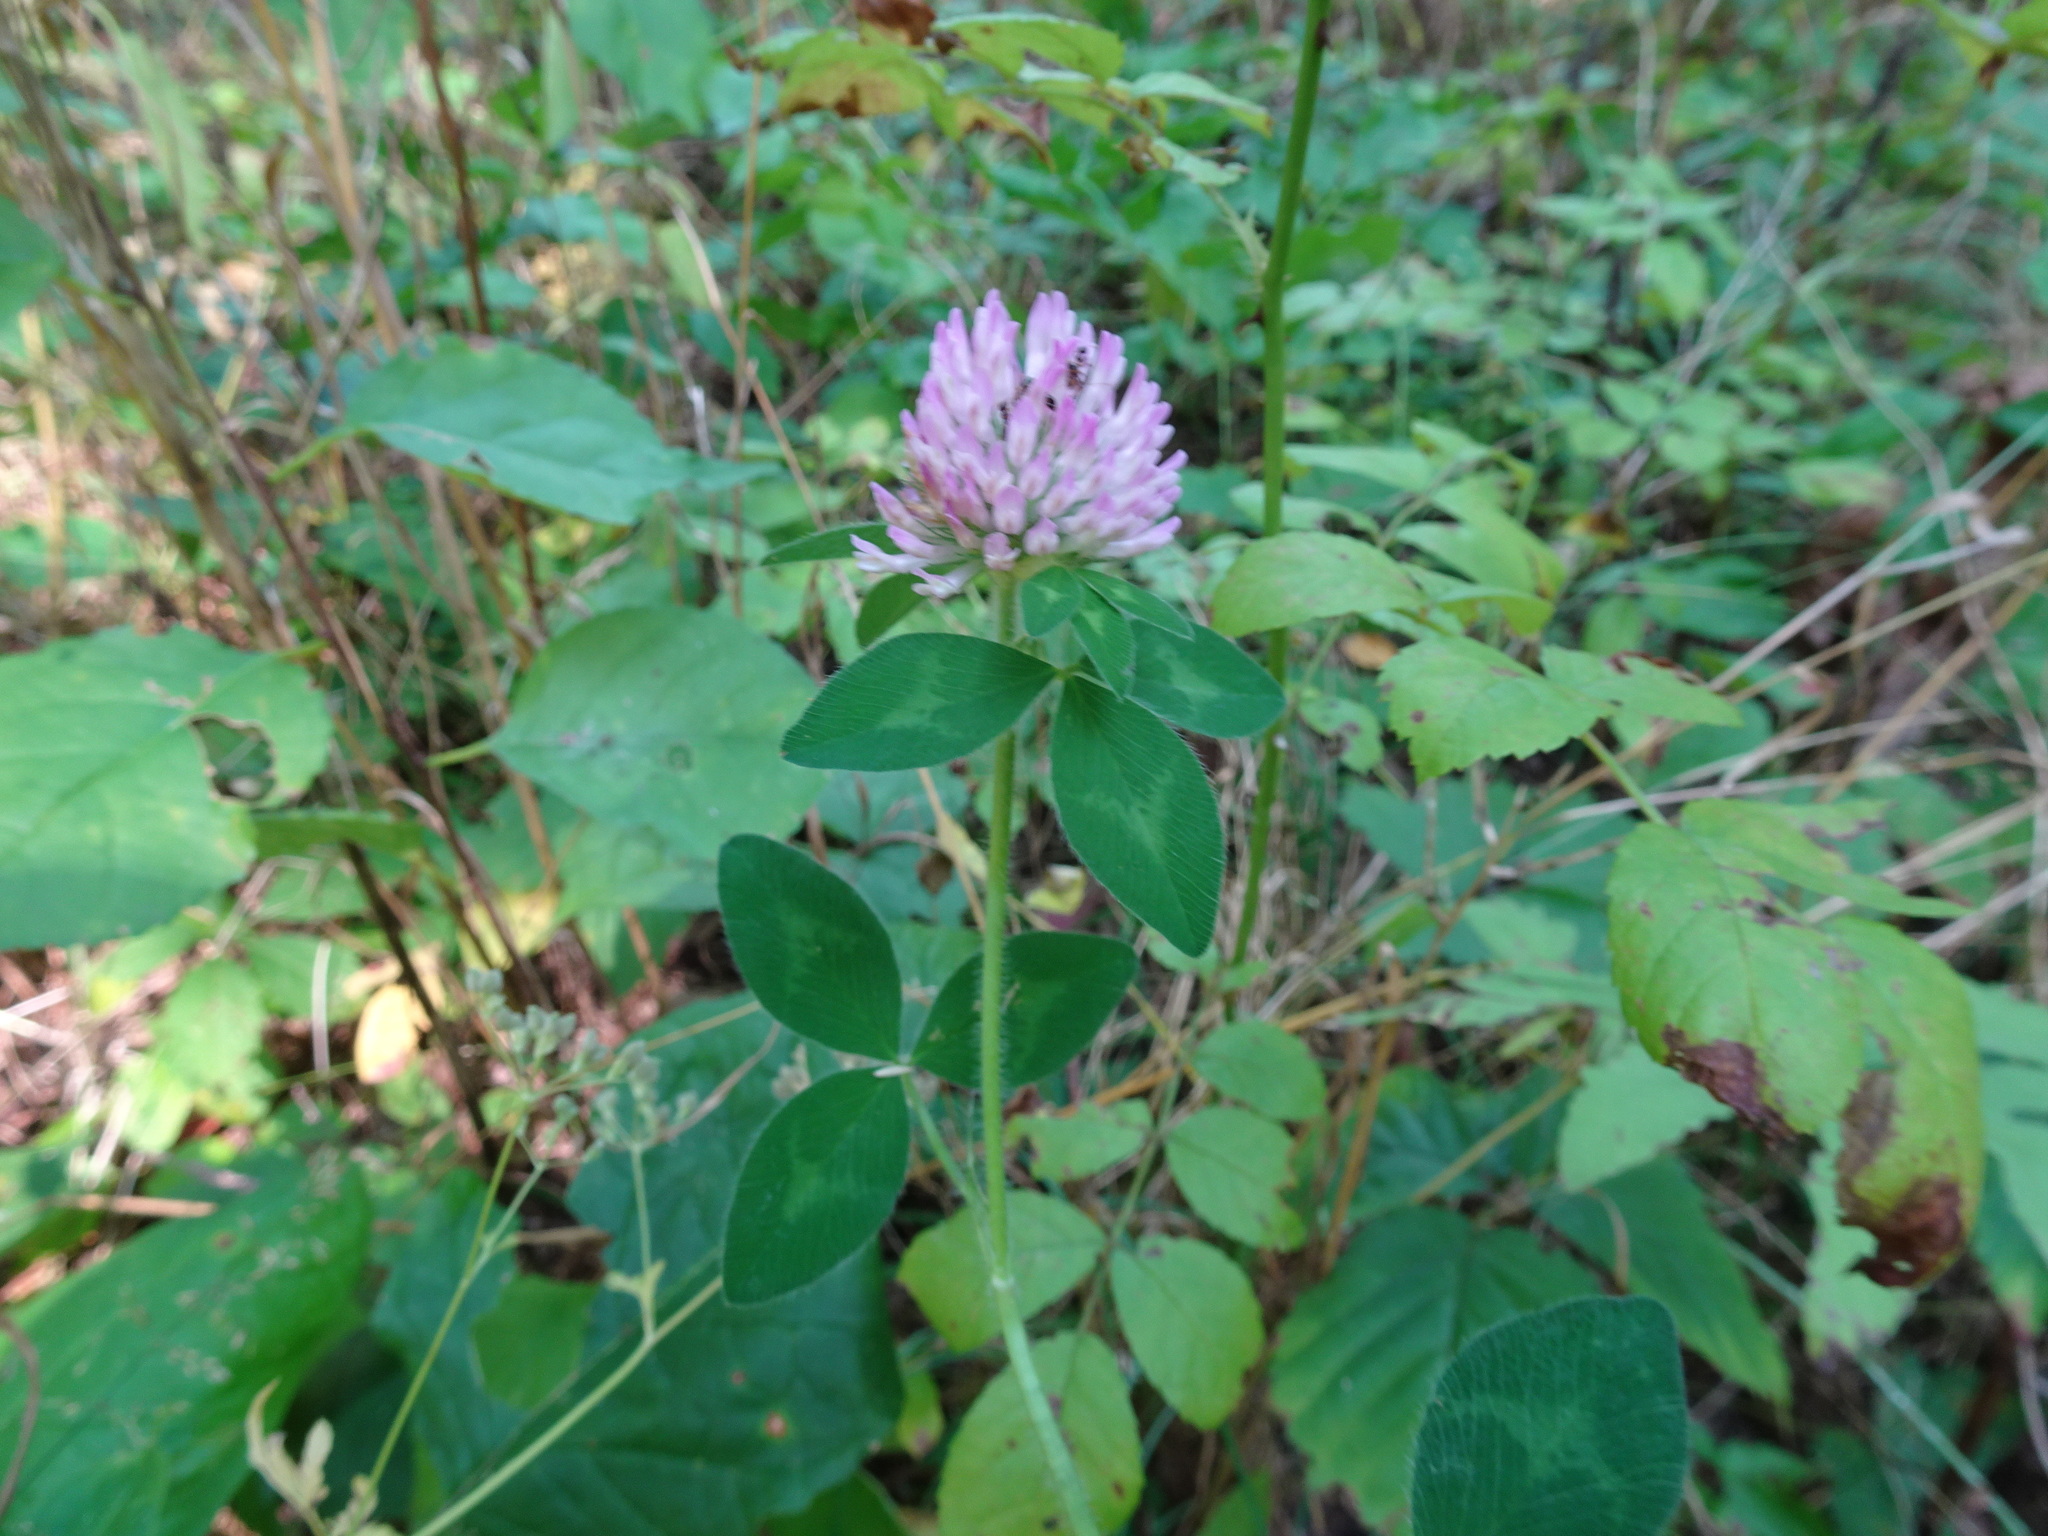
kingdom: Plantae
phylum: Tracheophyta
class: Magnoliopsida
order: Fabales
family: Fabaceae
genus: Trifolium
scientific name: Trifolium pratense
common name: Red clover
